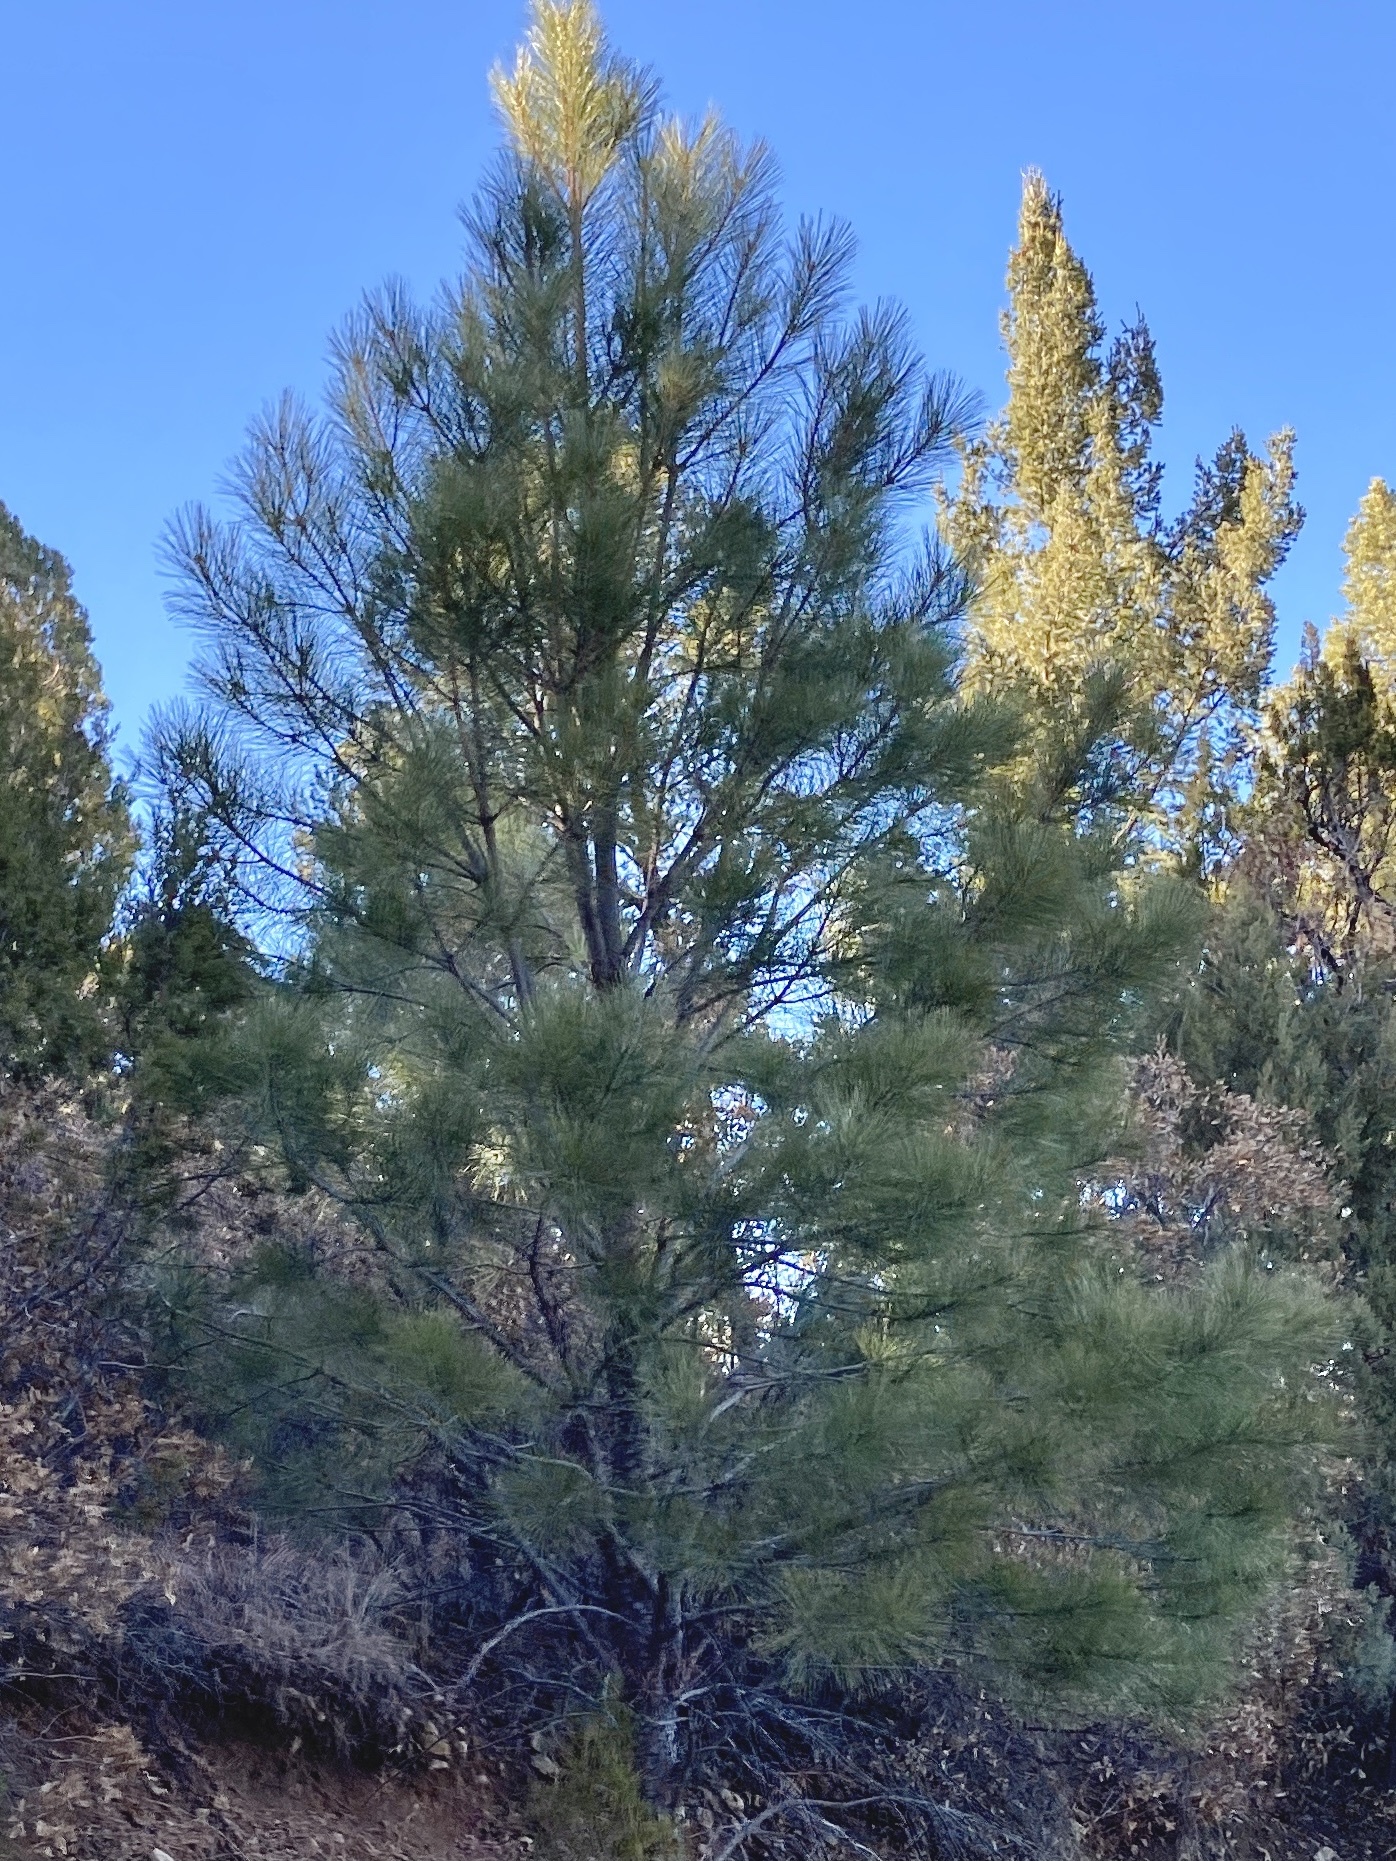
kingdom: Plantae
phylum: Tracheophyta
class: Pinopsida
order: Pinales
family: Pinaceae
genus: Pinus
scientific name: Pinus ponderosa
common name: Western yellow-pine
